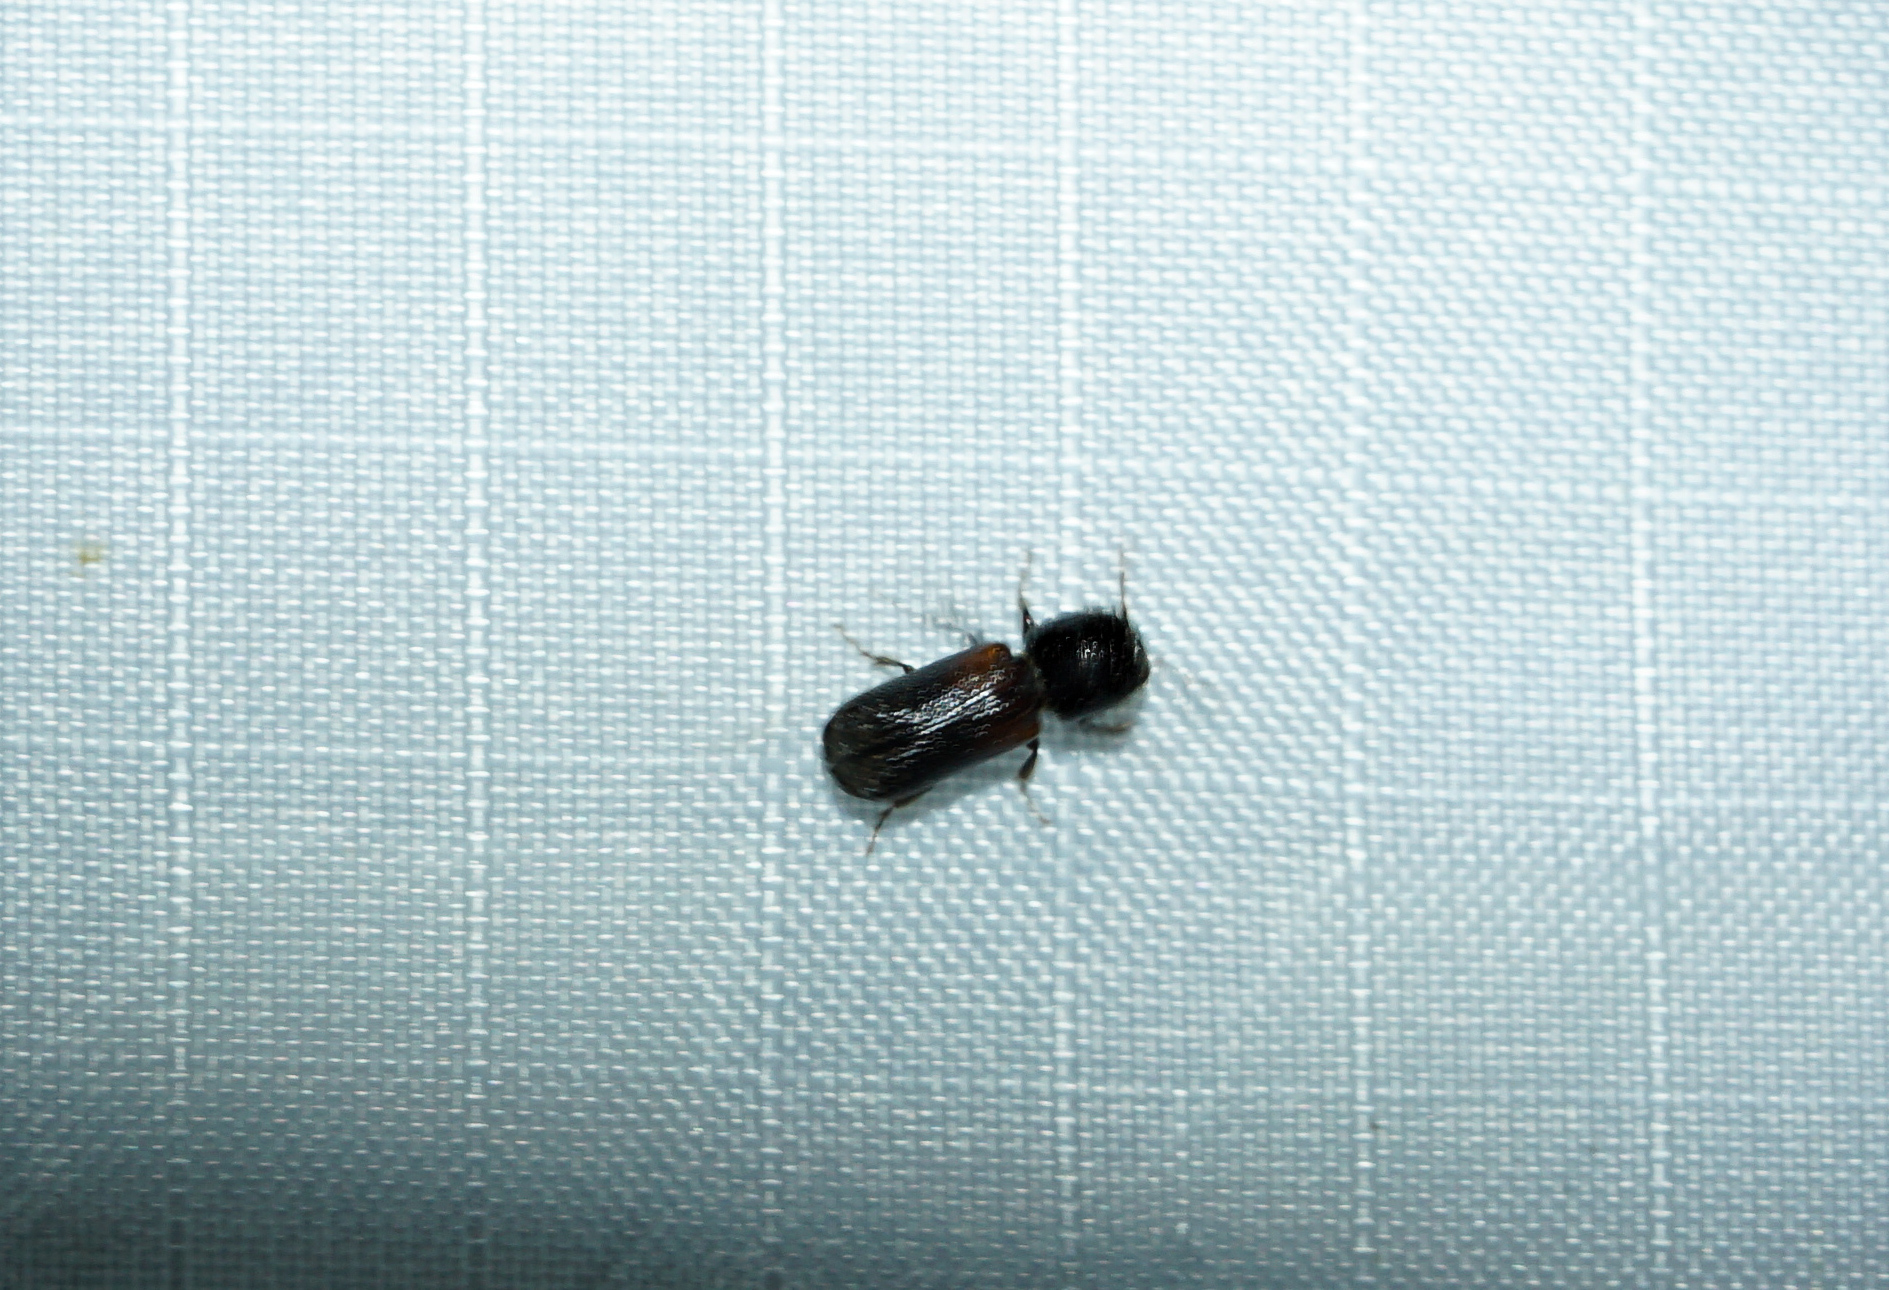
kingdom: Animalia
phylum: Arthropoda
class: Insecta
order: Coleoptera
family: Bostrichidae
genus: Xylobiops
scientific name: Xylobiops basilaris
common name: Red-shouldered bostrichid
